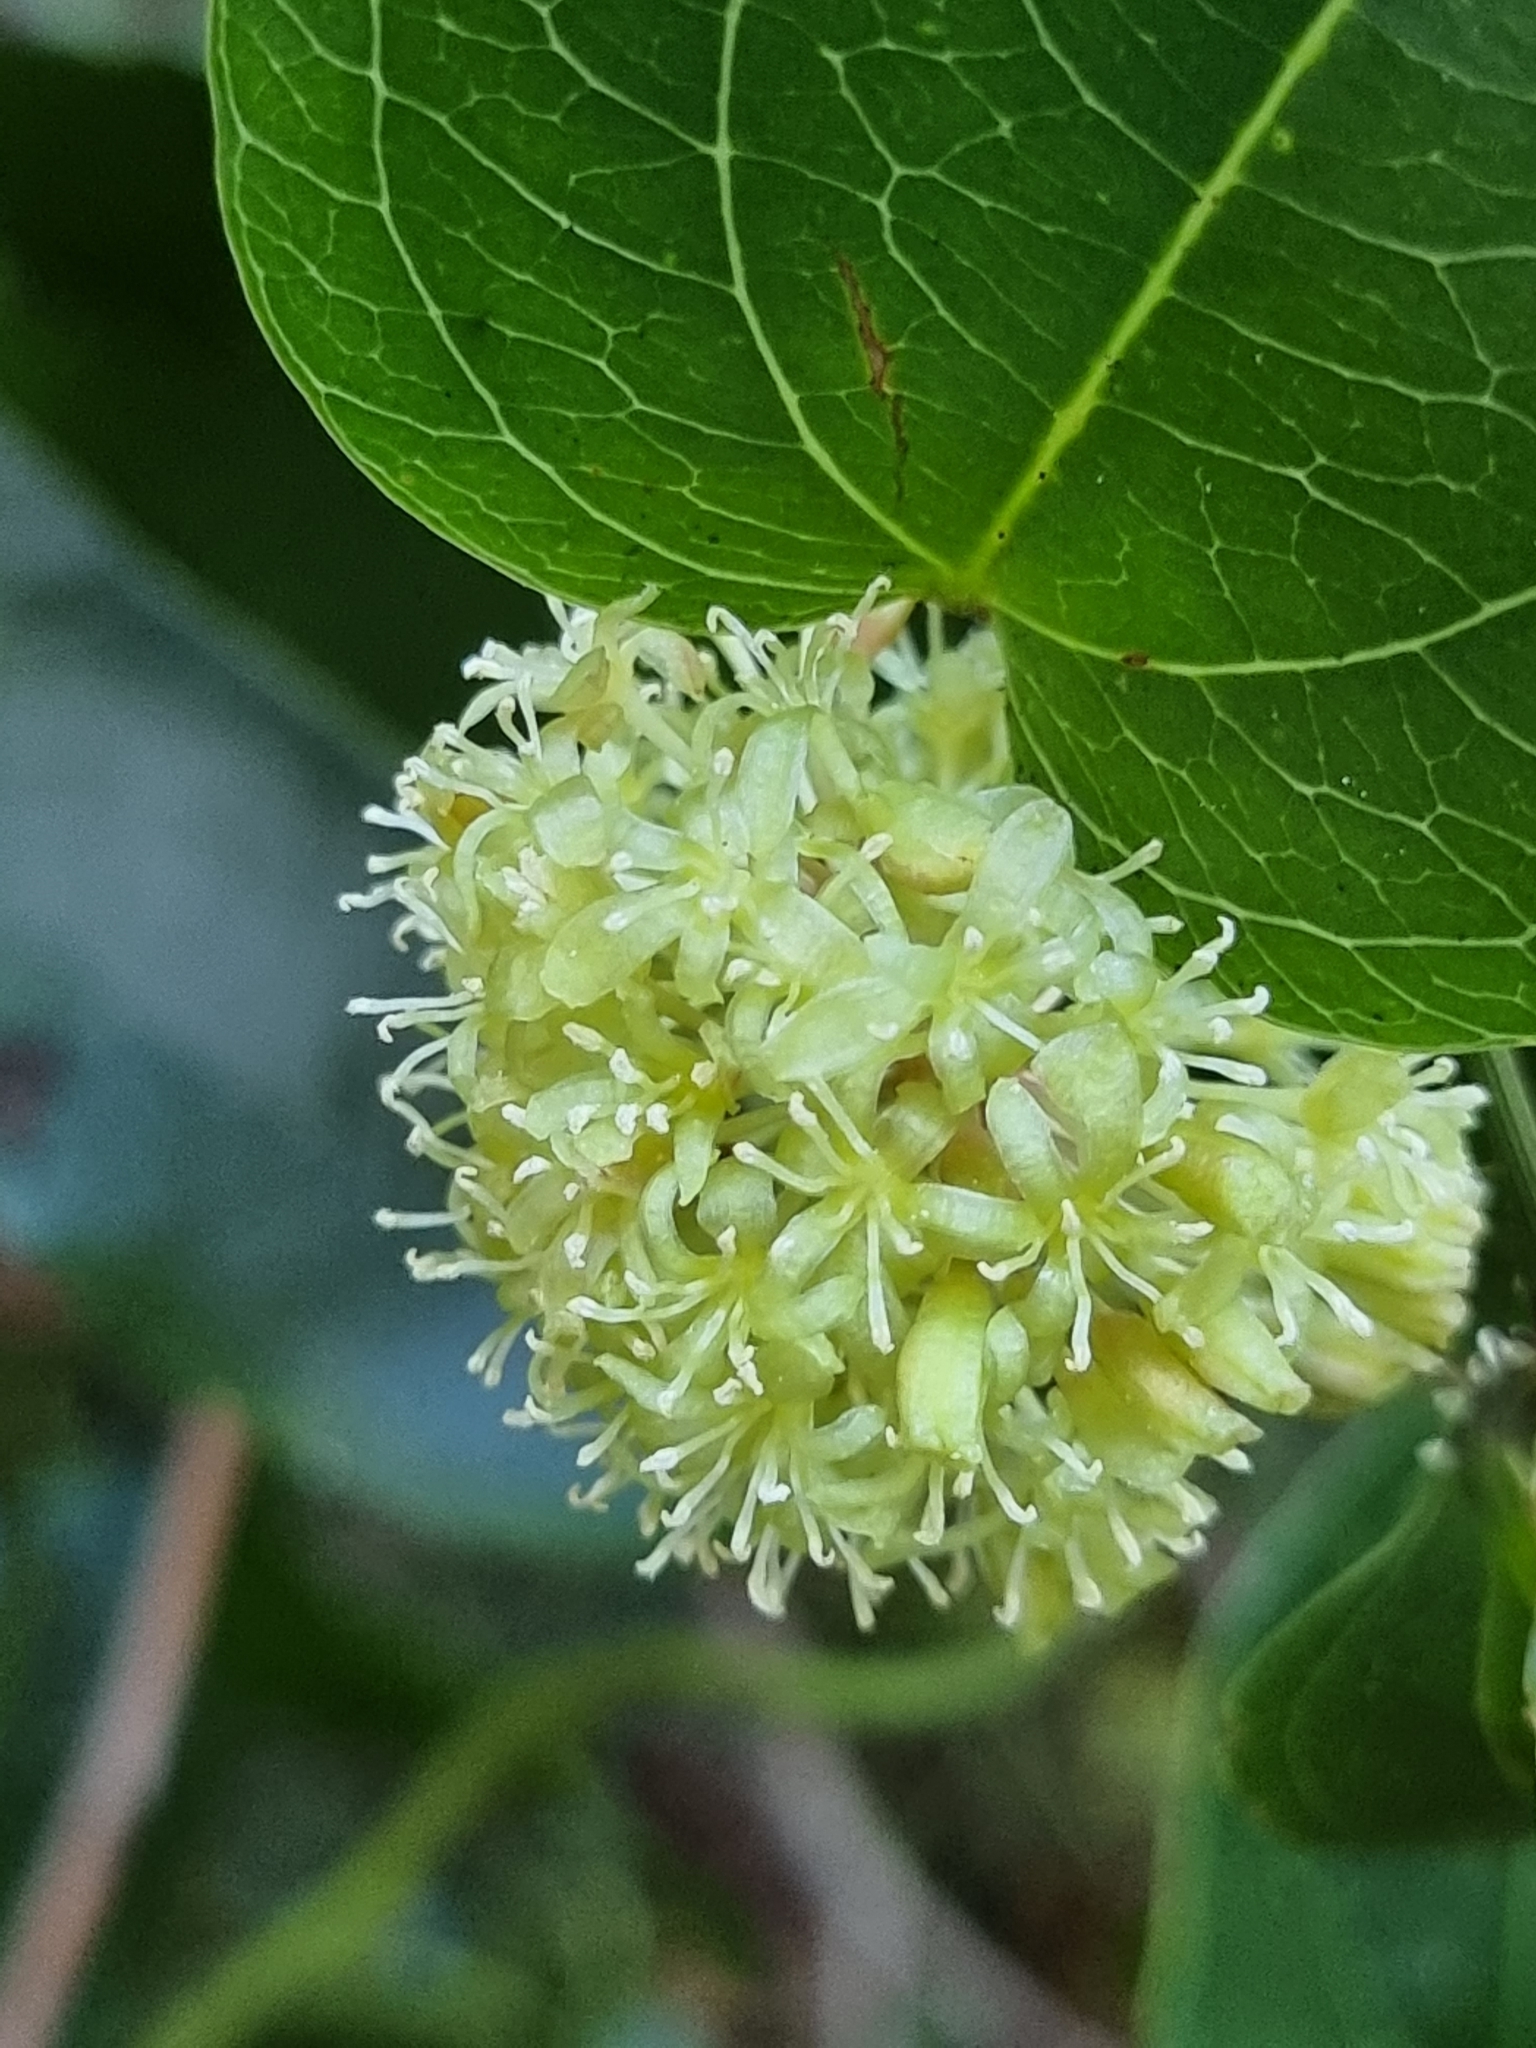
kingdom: Plantae
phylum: Tracheophyta
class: Liliopsida
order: Liliales
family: Smilacaceae
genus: Smilax
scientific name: Smilax australis
